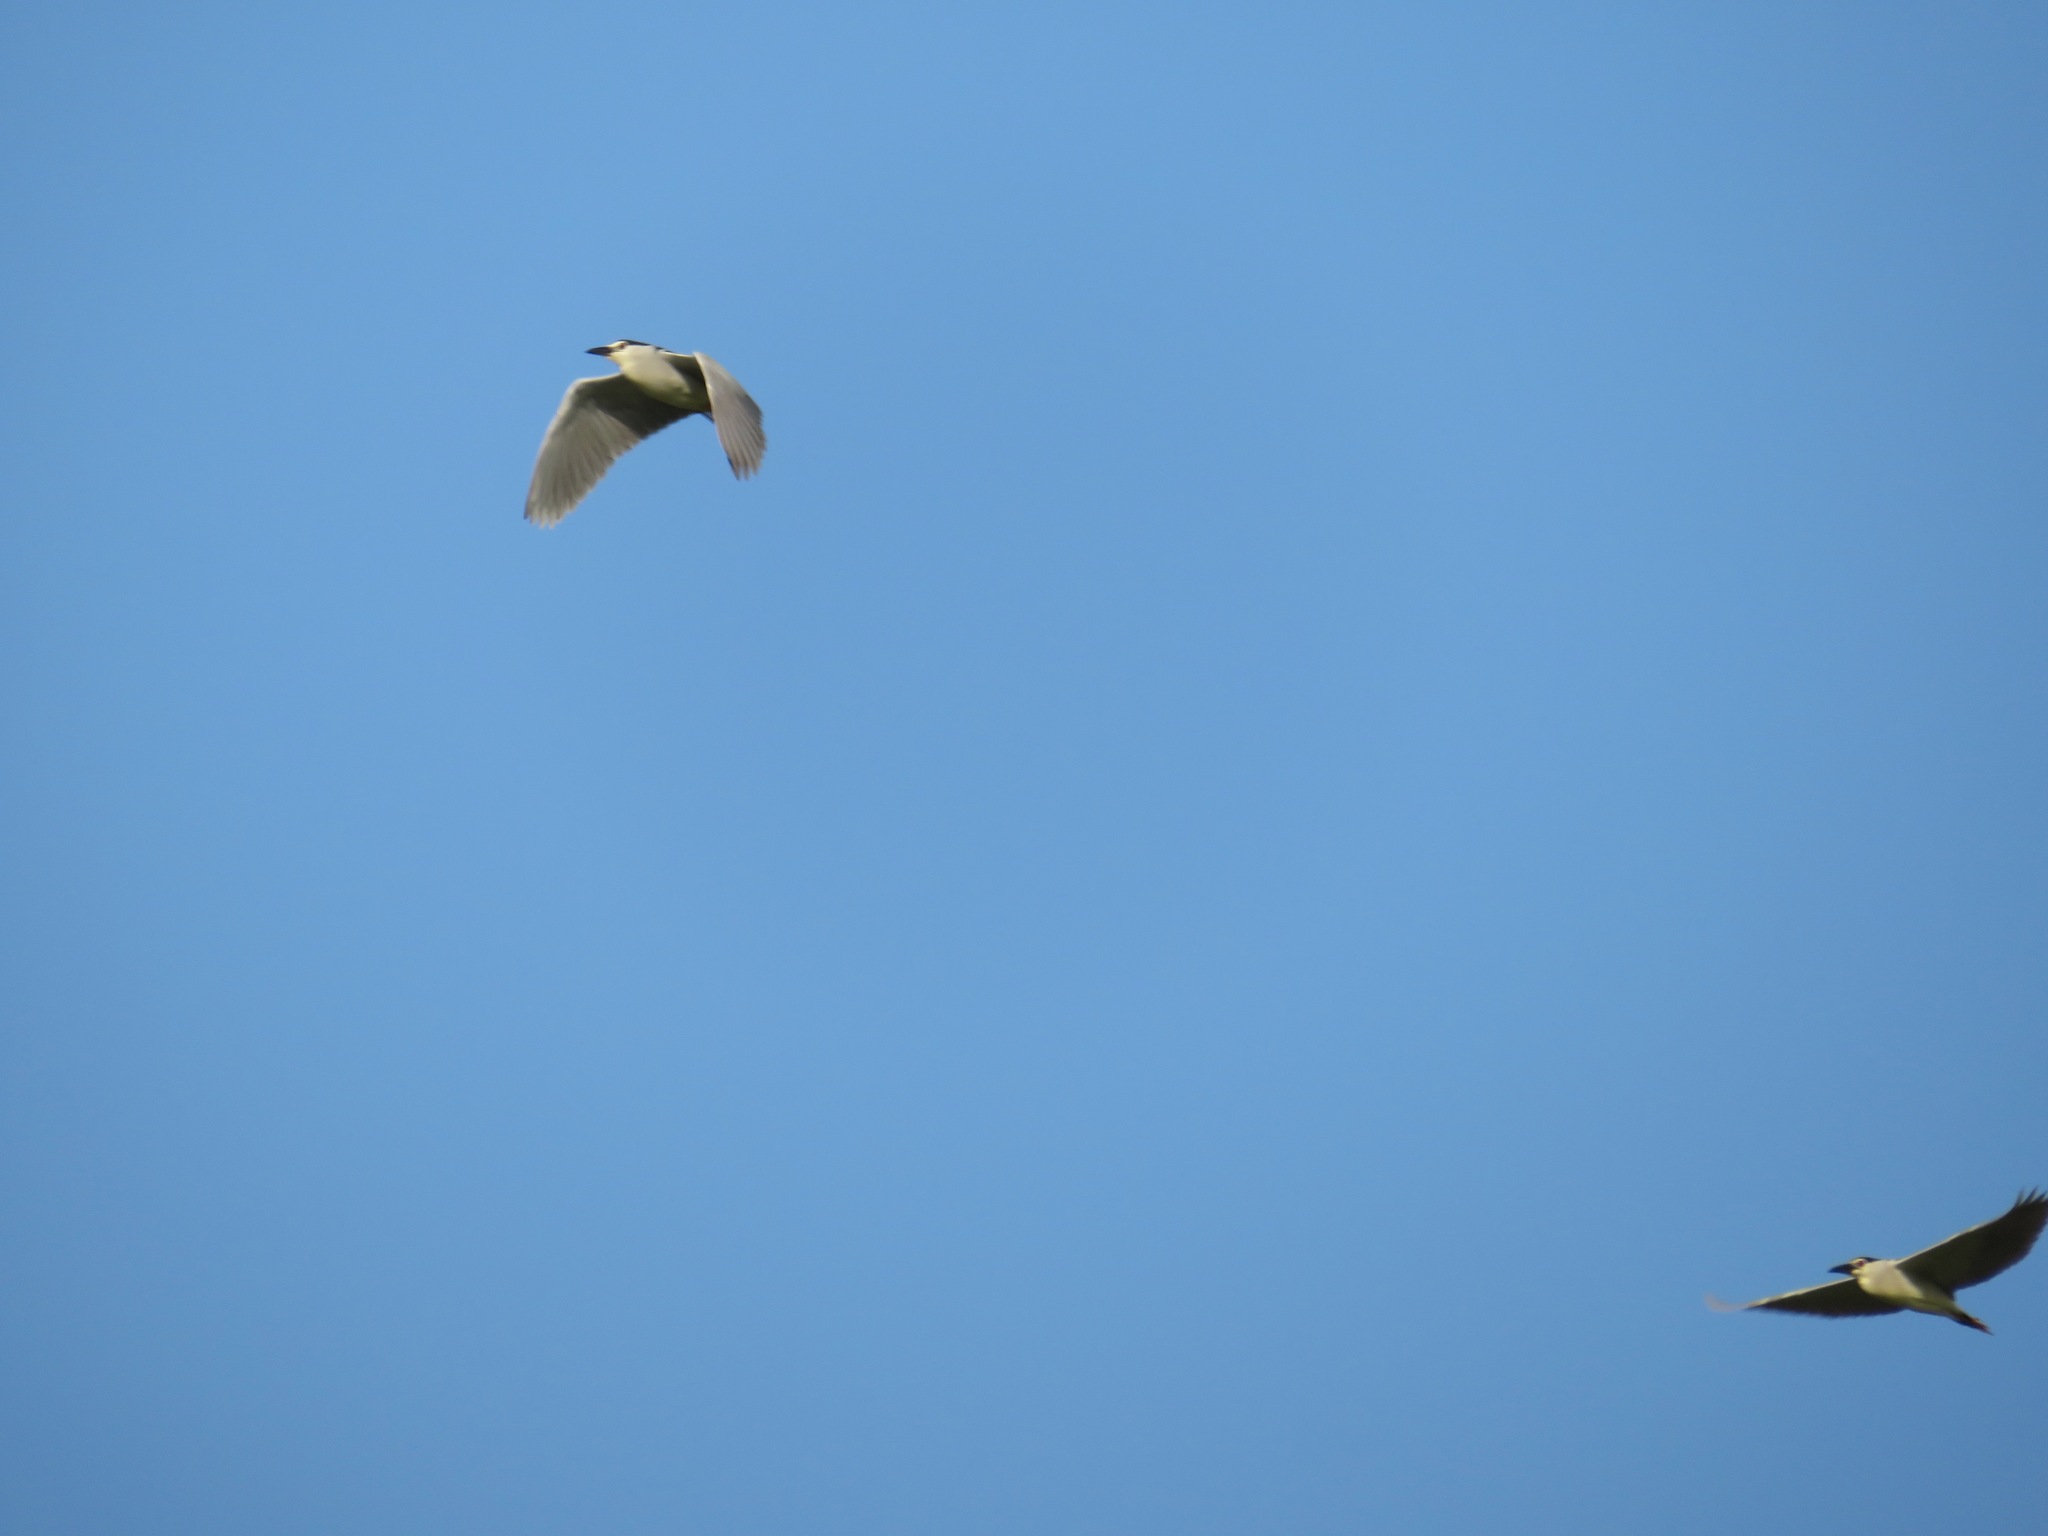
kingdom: Animalia
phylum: Chordata
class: Aves
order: Pelecaniformes
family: Ardeidae
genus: Nycticorax
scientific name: Nycticorax nycticorax
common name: Black-crowned night heron
